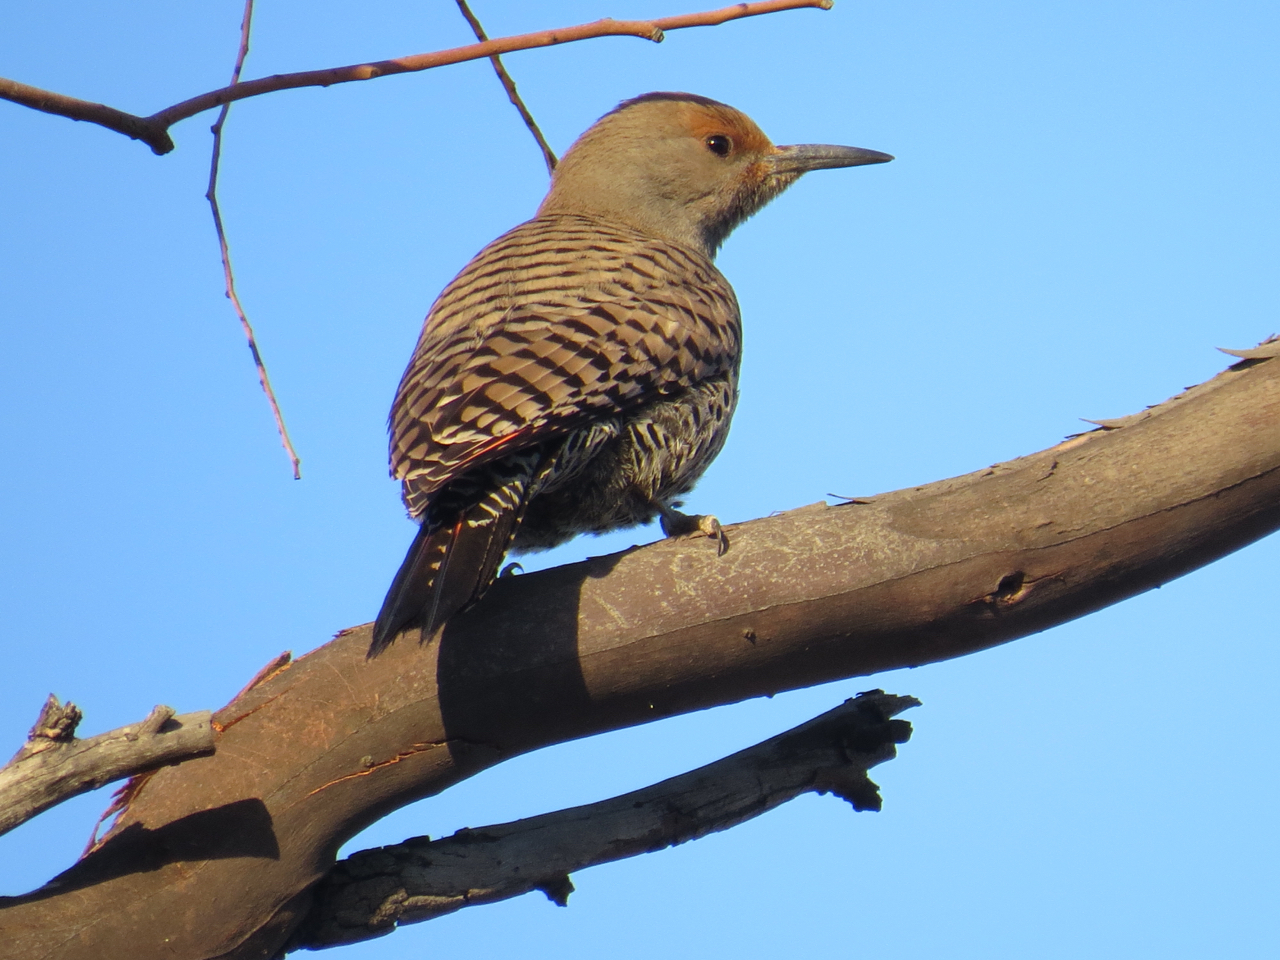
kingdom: Animalia
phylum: Chordata
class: Aves
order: Piciformes
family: Picidae
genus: Colaptes
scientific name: Colaptes auratus
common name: Northern flicker
